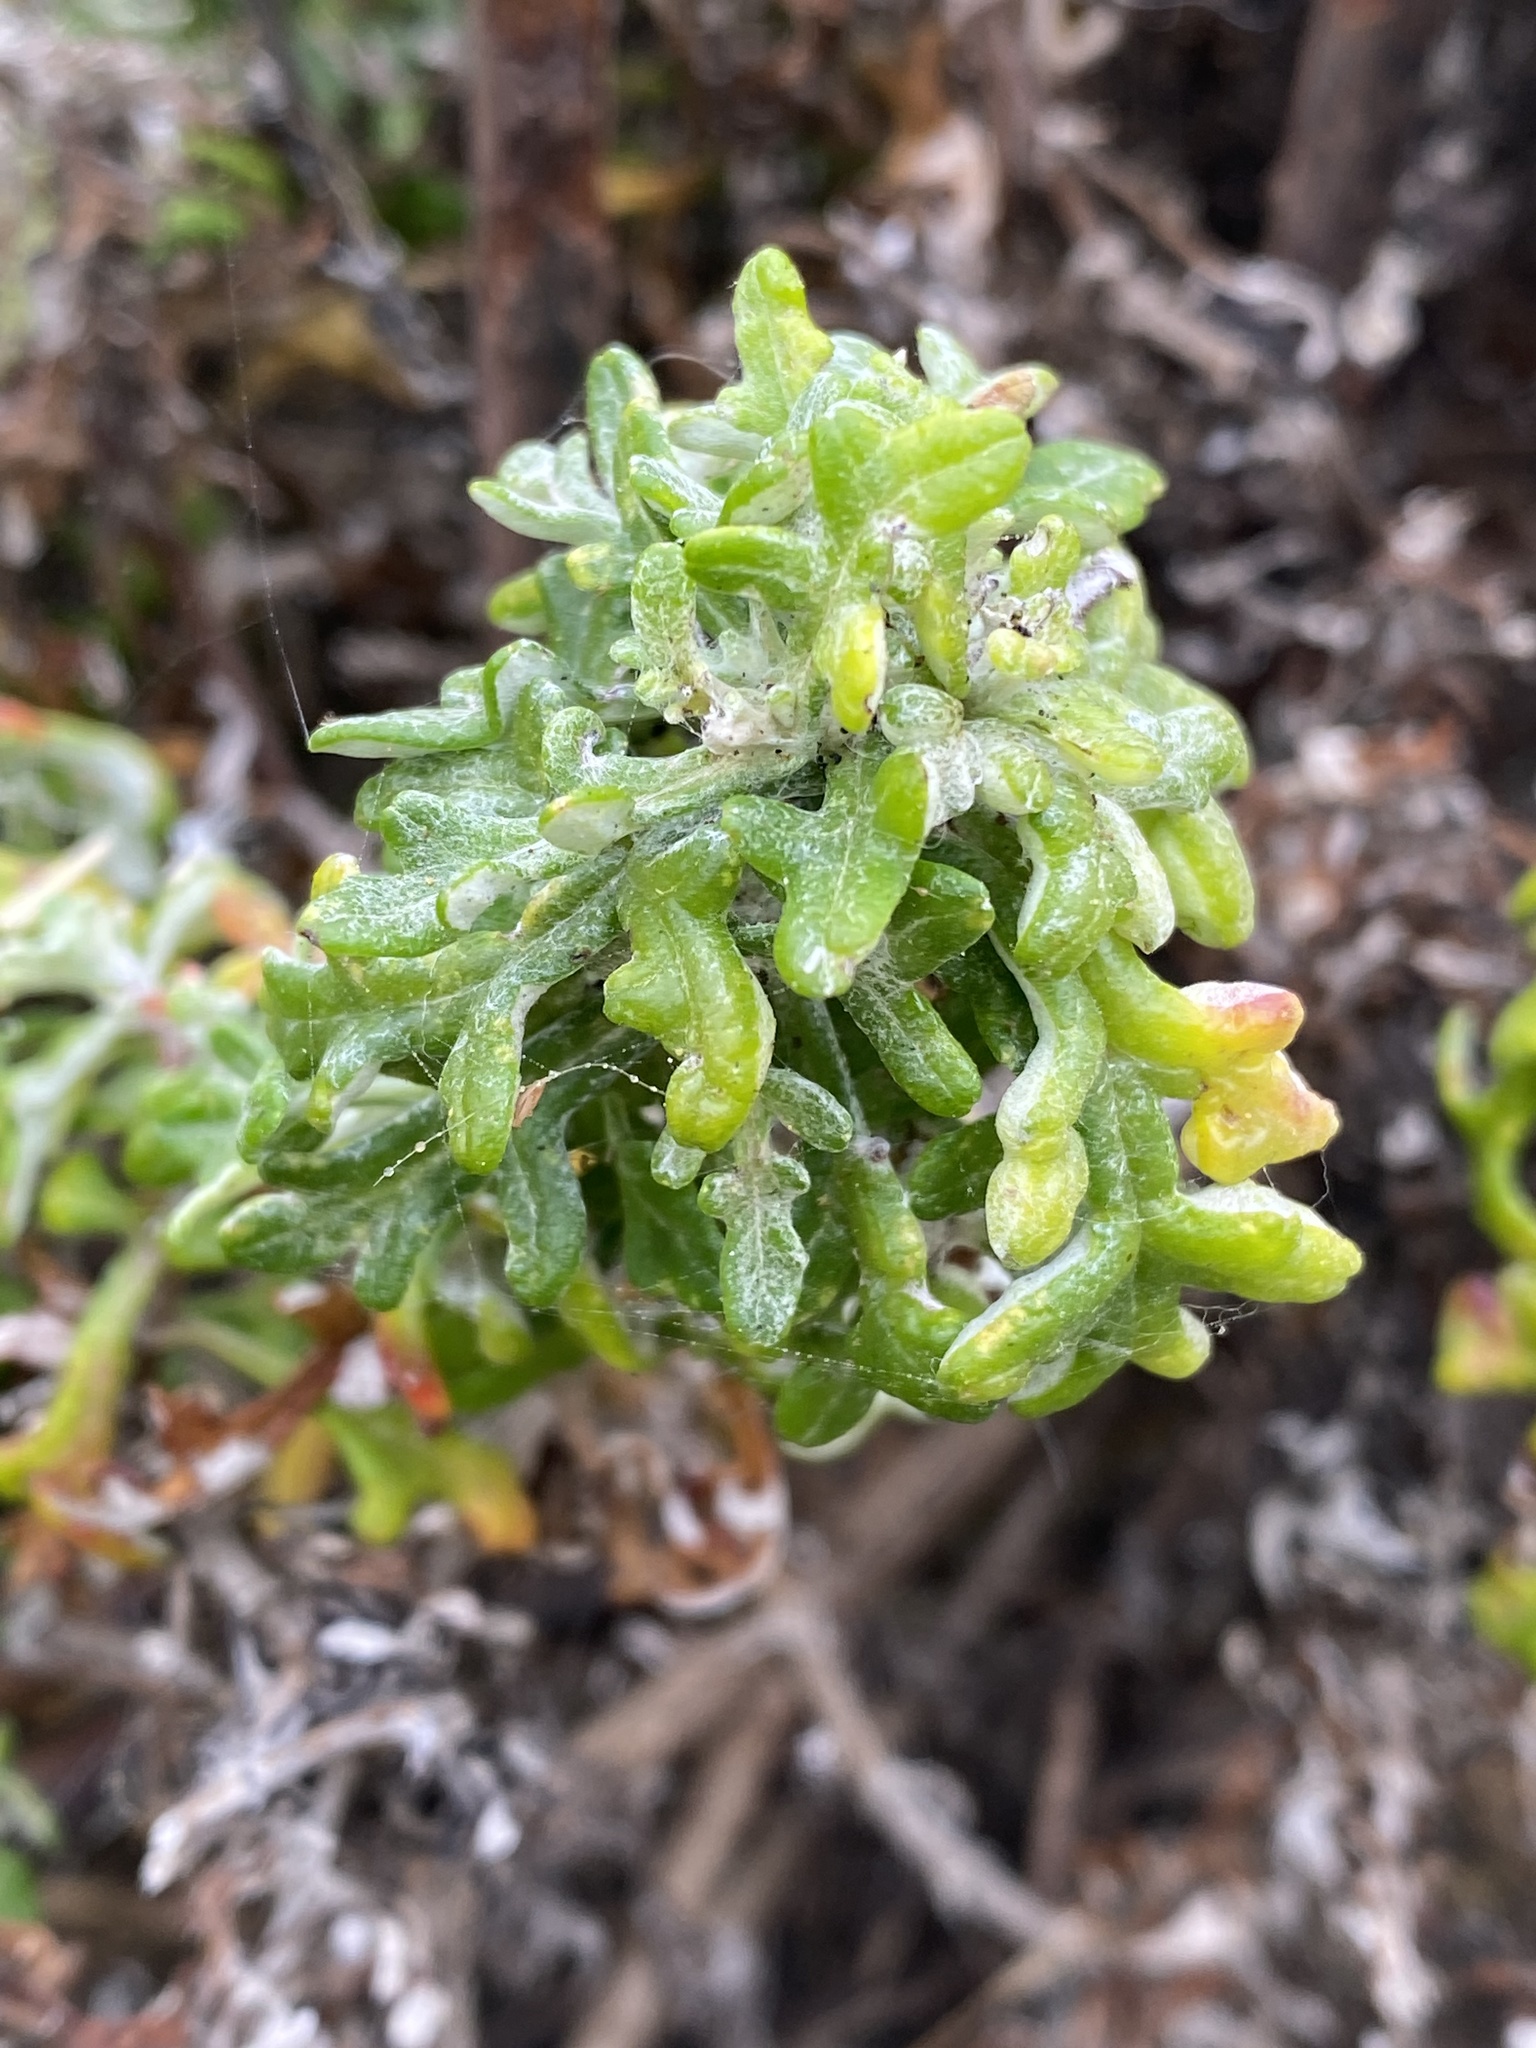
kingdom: Plantae
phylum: Tracheophyta
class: Magnoliopsida
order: Asterales
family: Asteraceae
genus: Eriophyllum
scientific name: Eriophyllum staechadifolium
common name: Lizardtail
